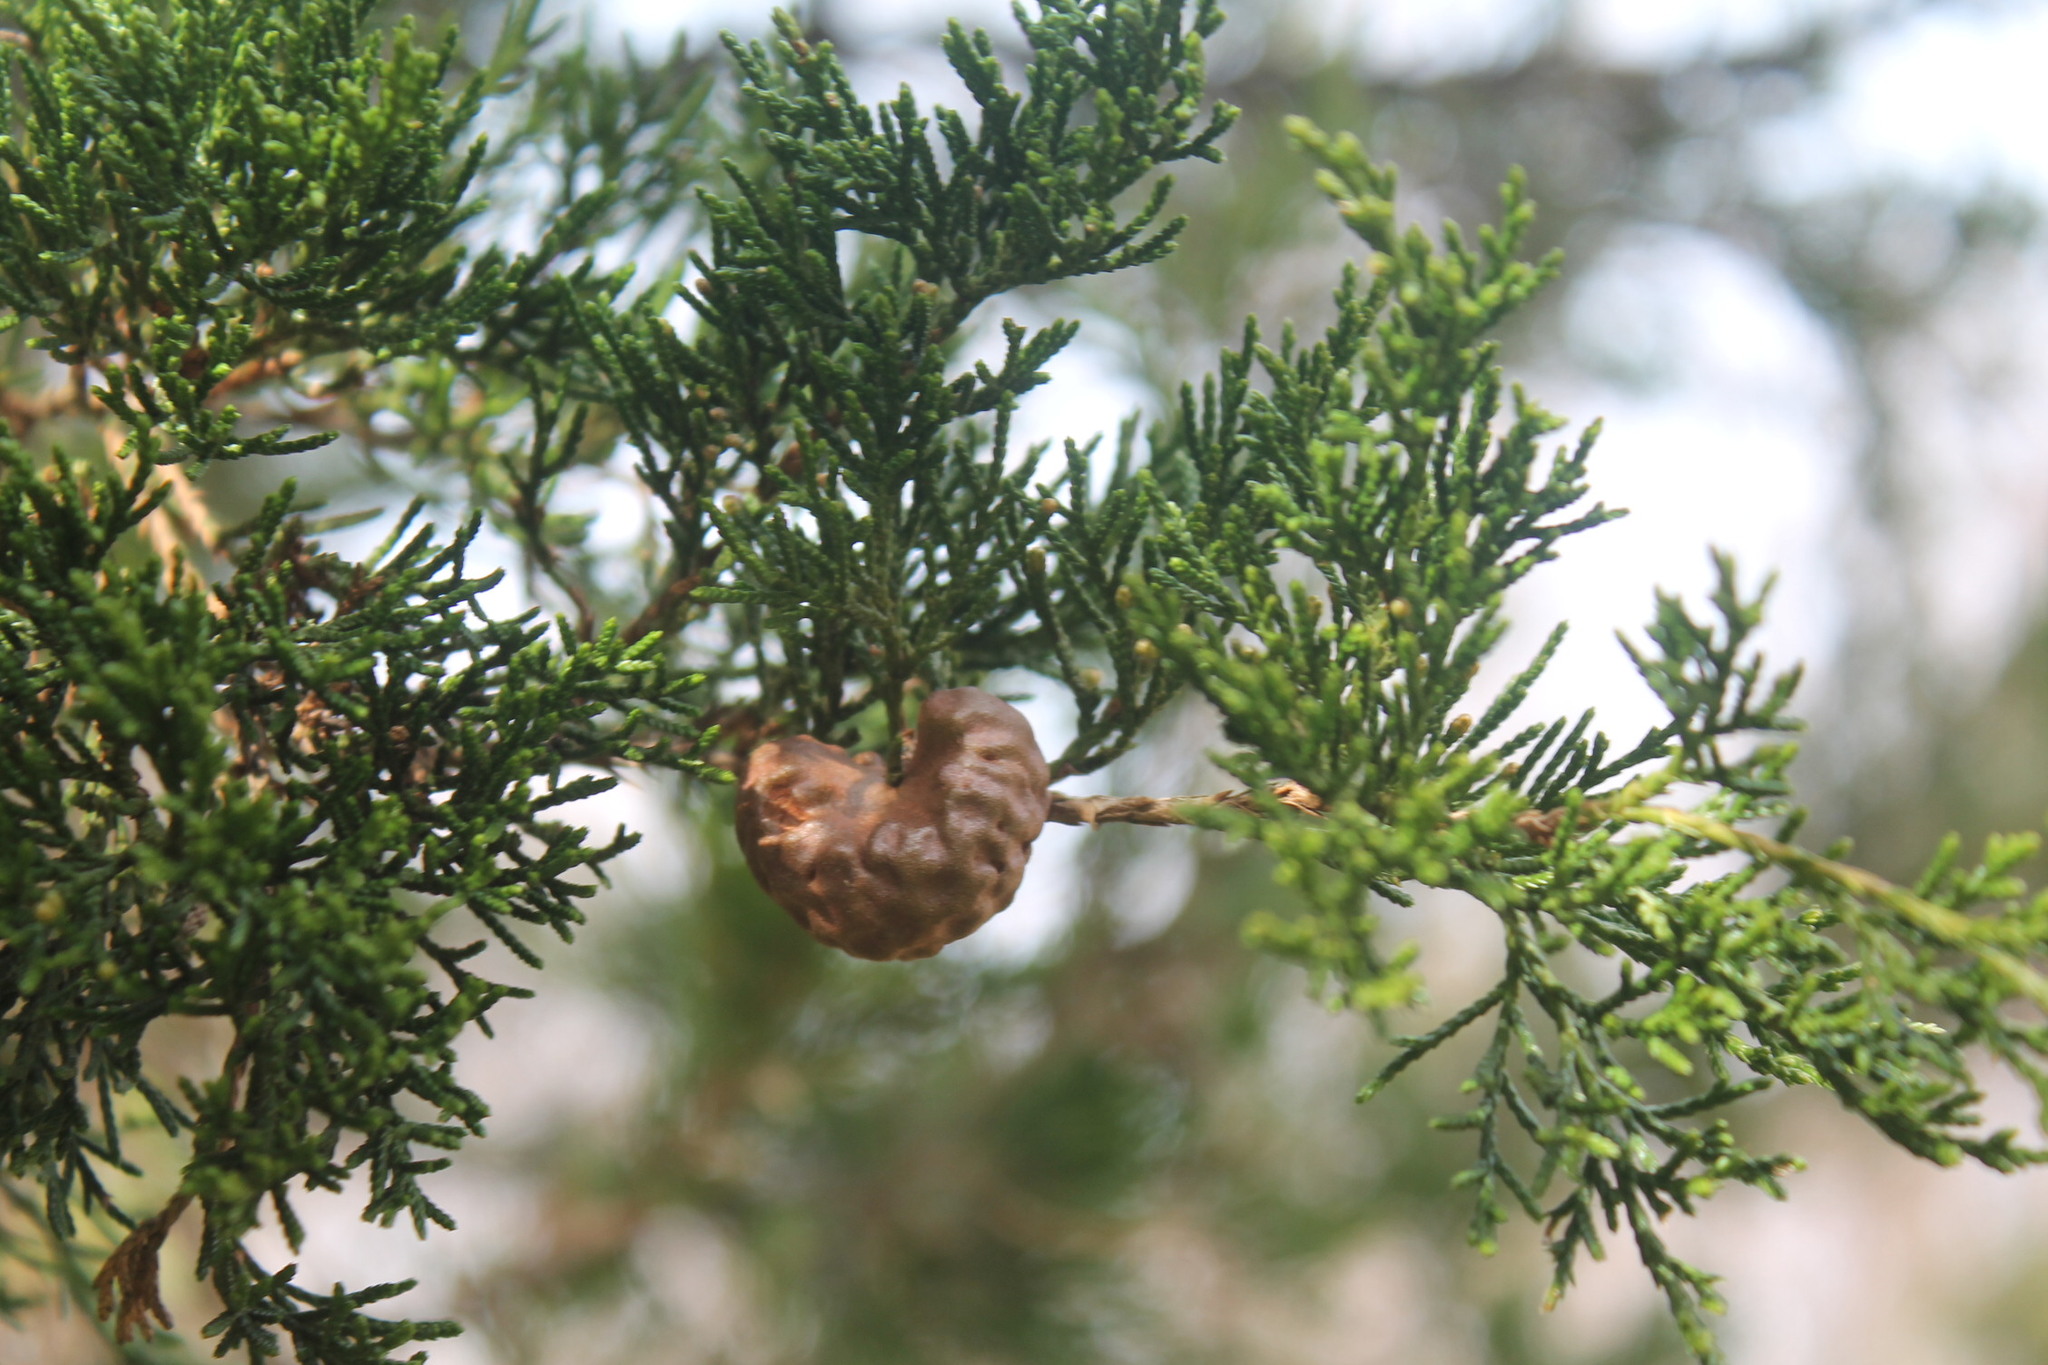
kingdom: Fungi
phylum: Basidiomycota
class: Pucciniomycetes
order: Pucciniales
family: Gymnosporangiaceae
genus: Gymnosporangium
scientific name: Gymnosporangium juniperi-virginianae
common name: Juniper-apple rust
